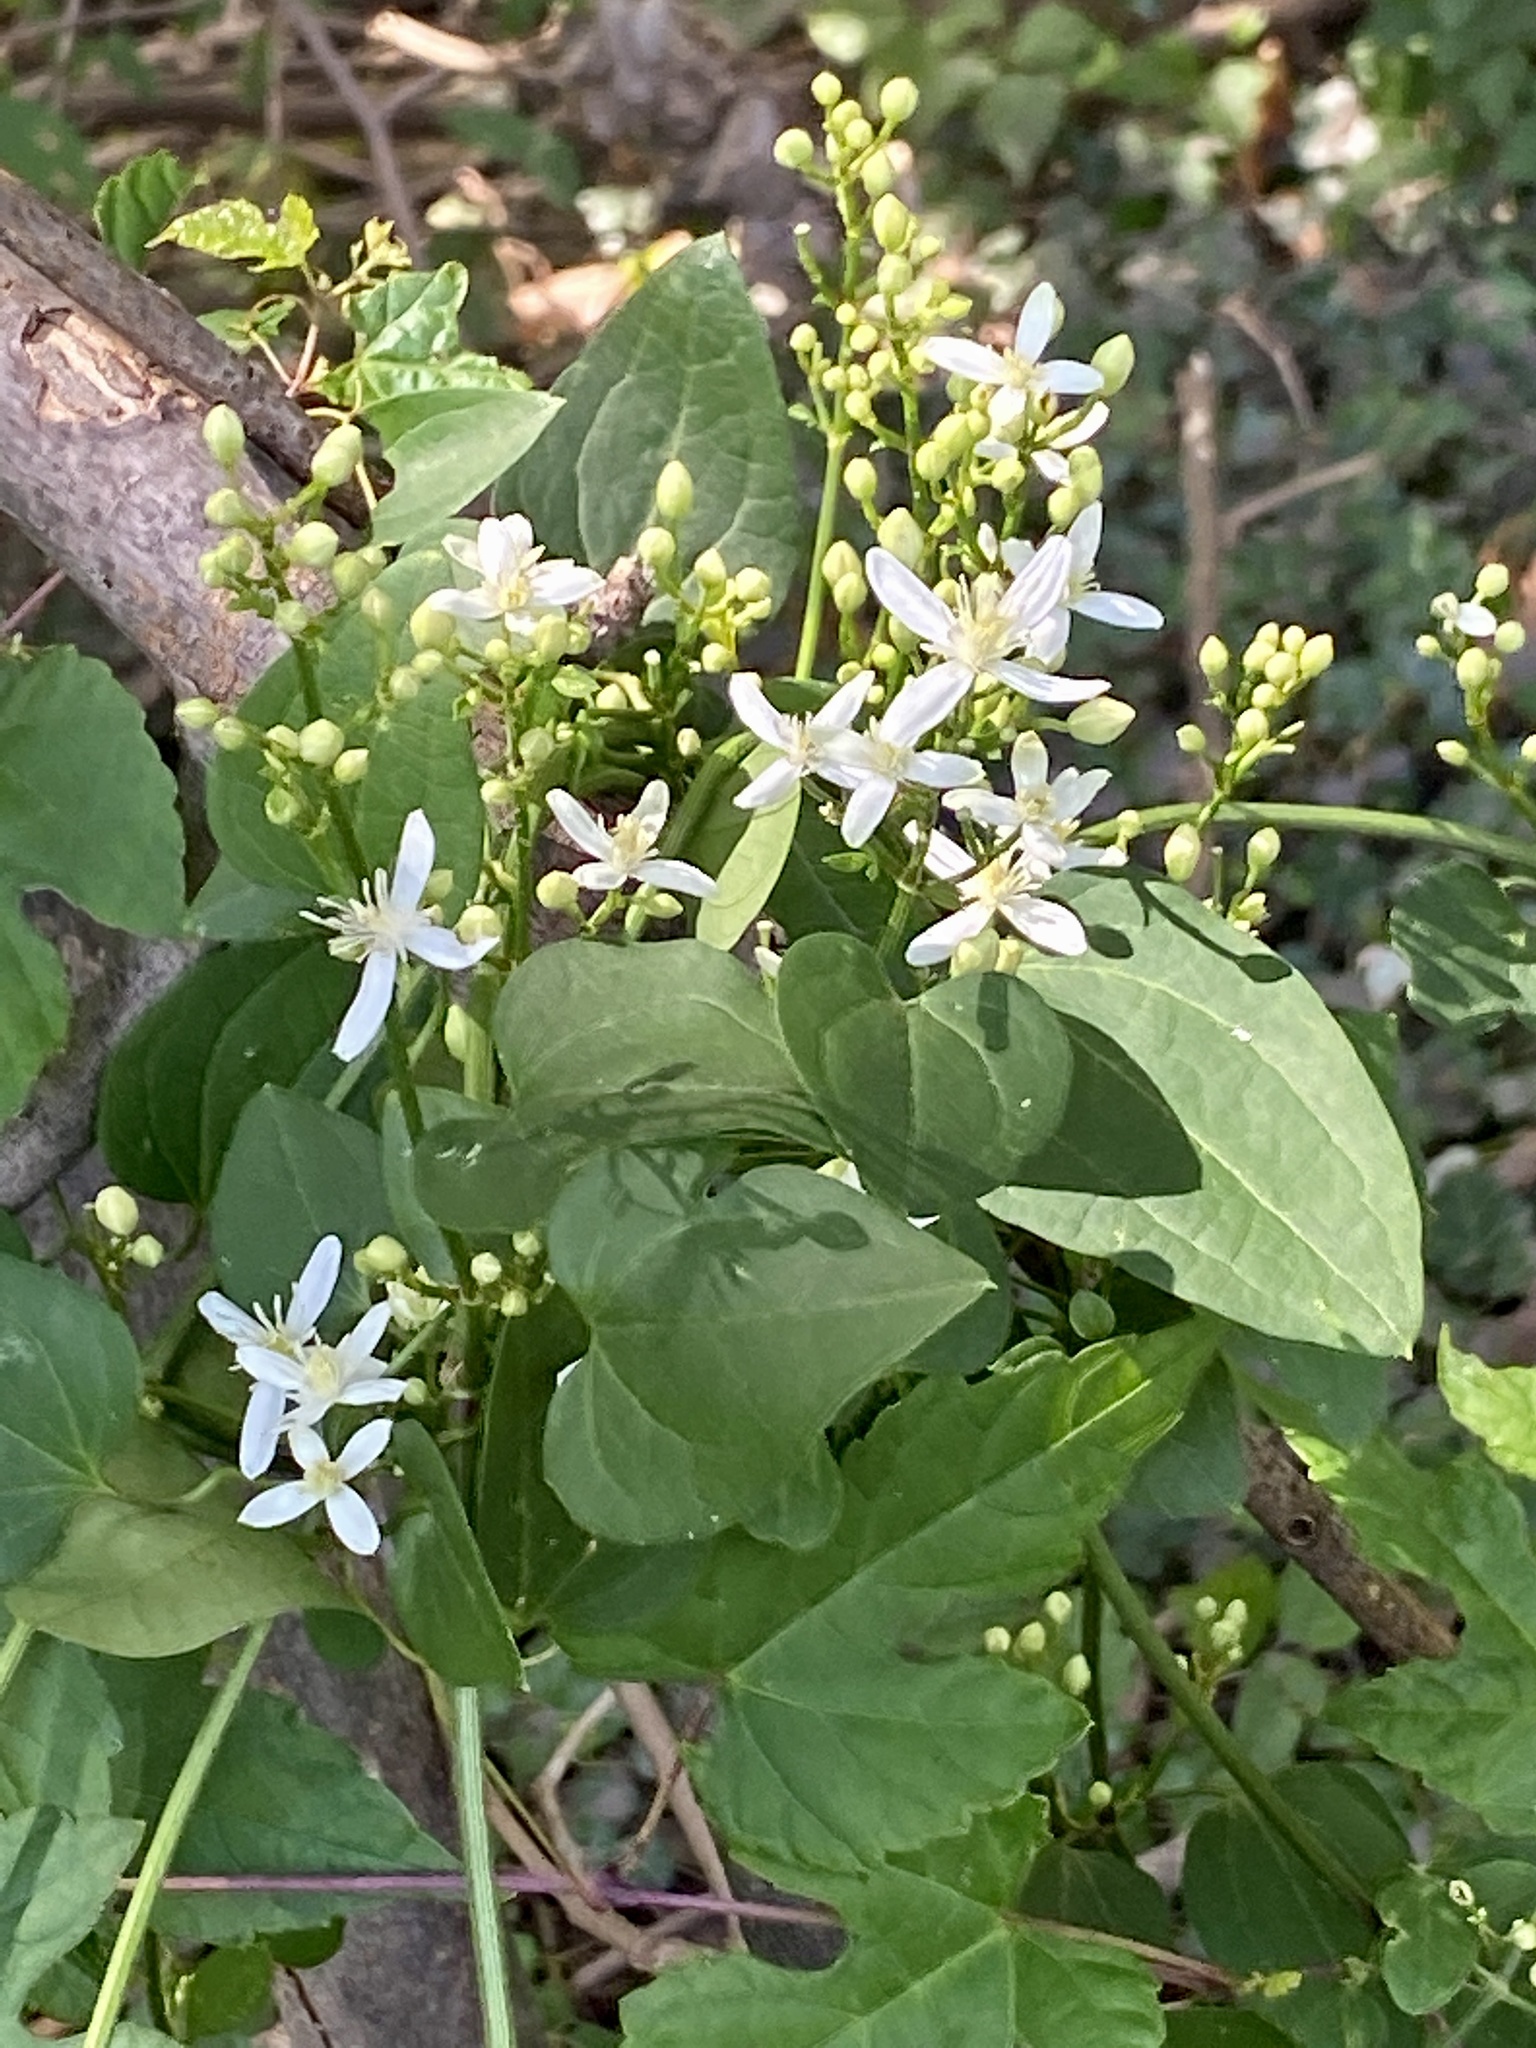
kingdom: Plantae
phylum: Tracheophyta
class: Magnoliopsida
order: Ranunculales
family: Ranunculaceae
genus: Clematis
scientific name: Clematis terniflora
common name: Sweet autumn clematis
